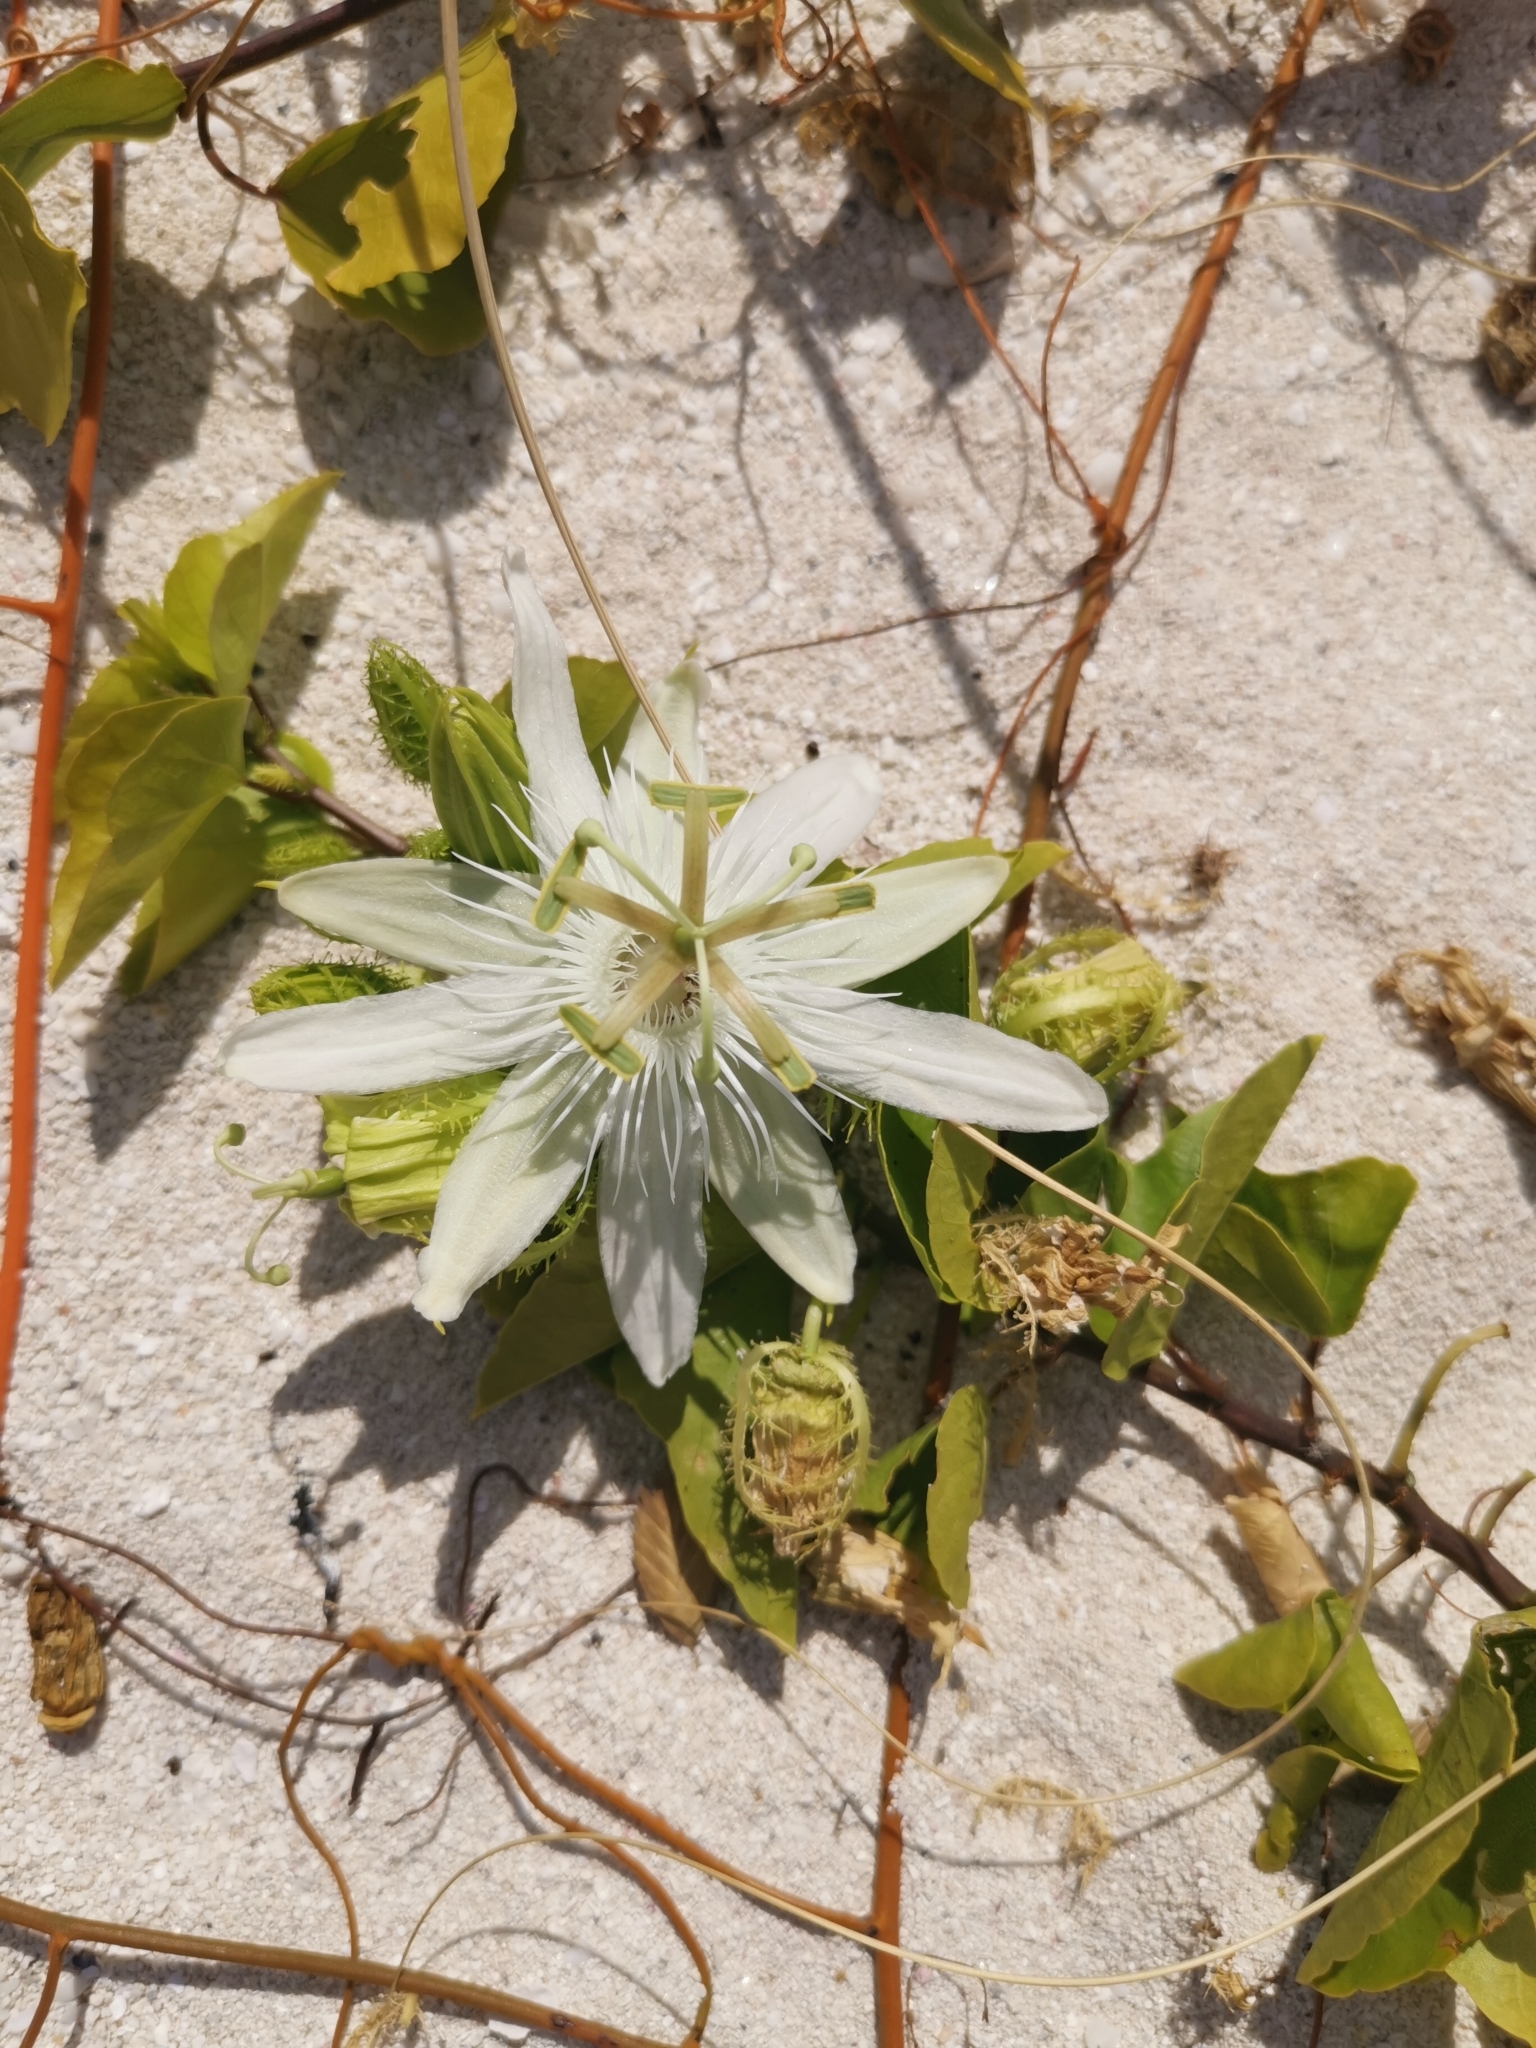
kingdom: Plantae
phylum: Tracheophyta
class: Magnoliopsida
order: Malpighiales
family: Passifloraceae
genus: Passiflora
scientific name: Passiflora pectinata
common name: White passionflower
